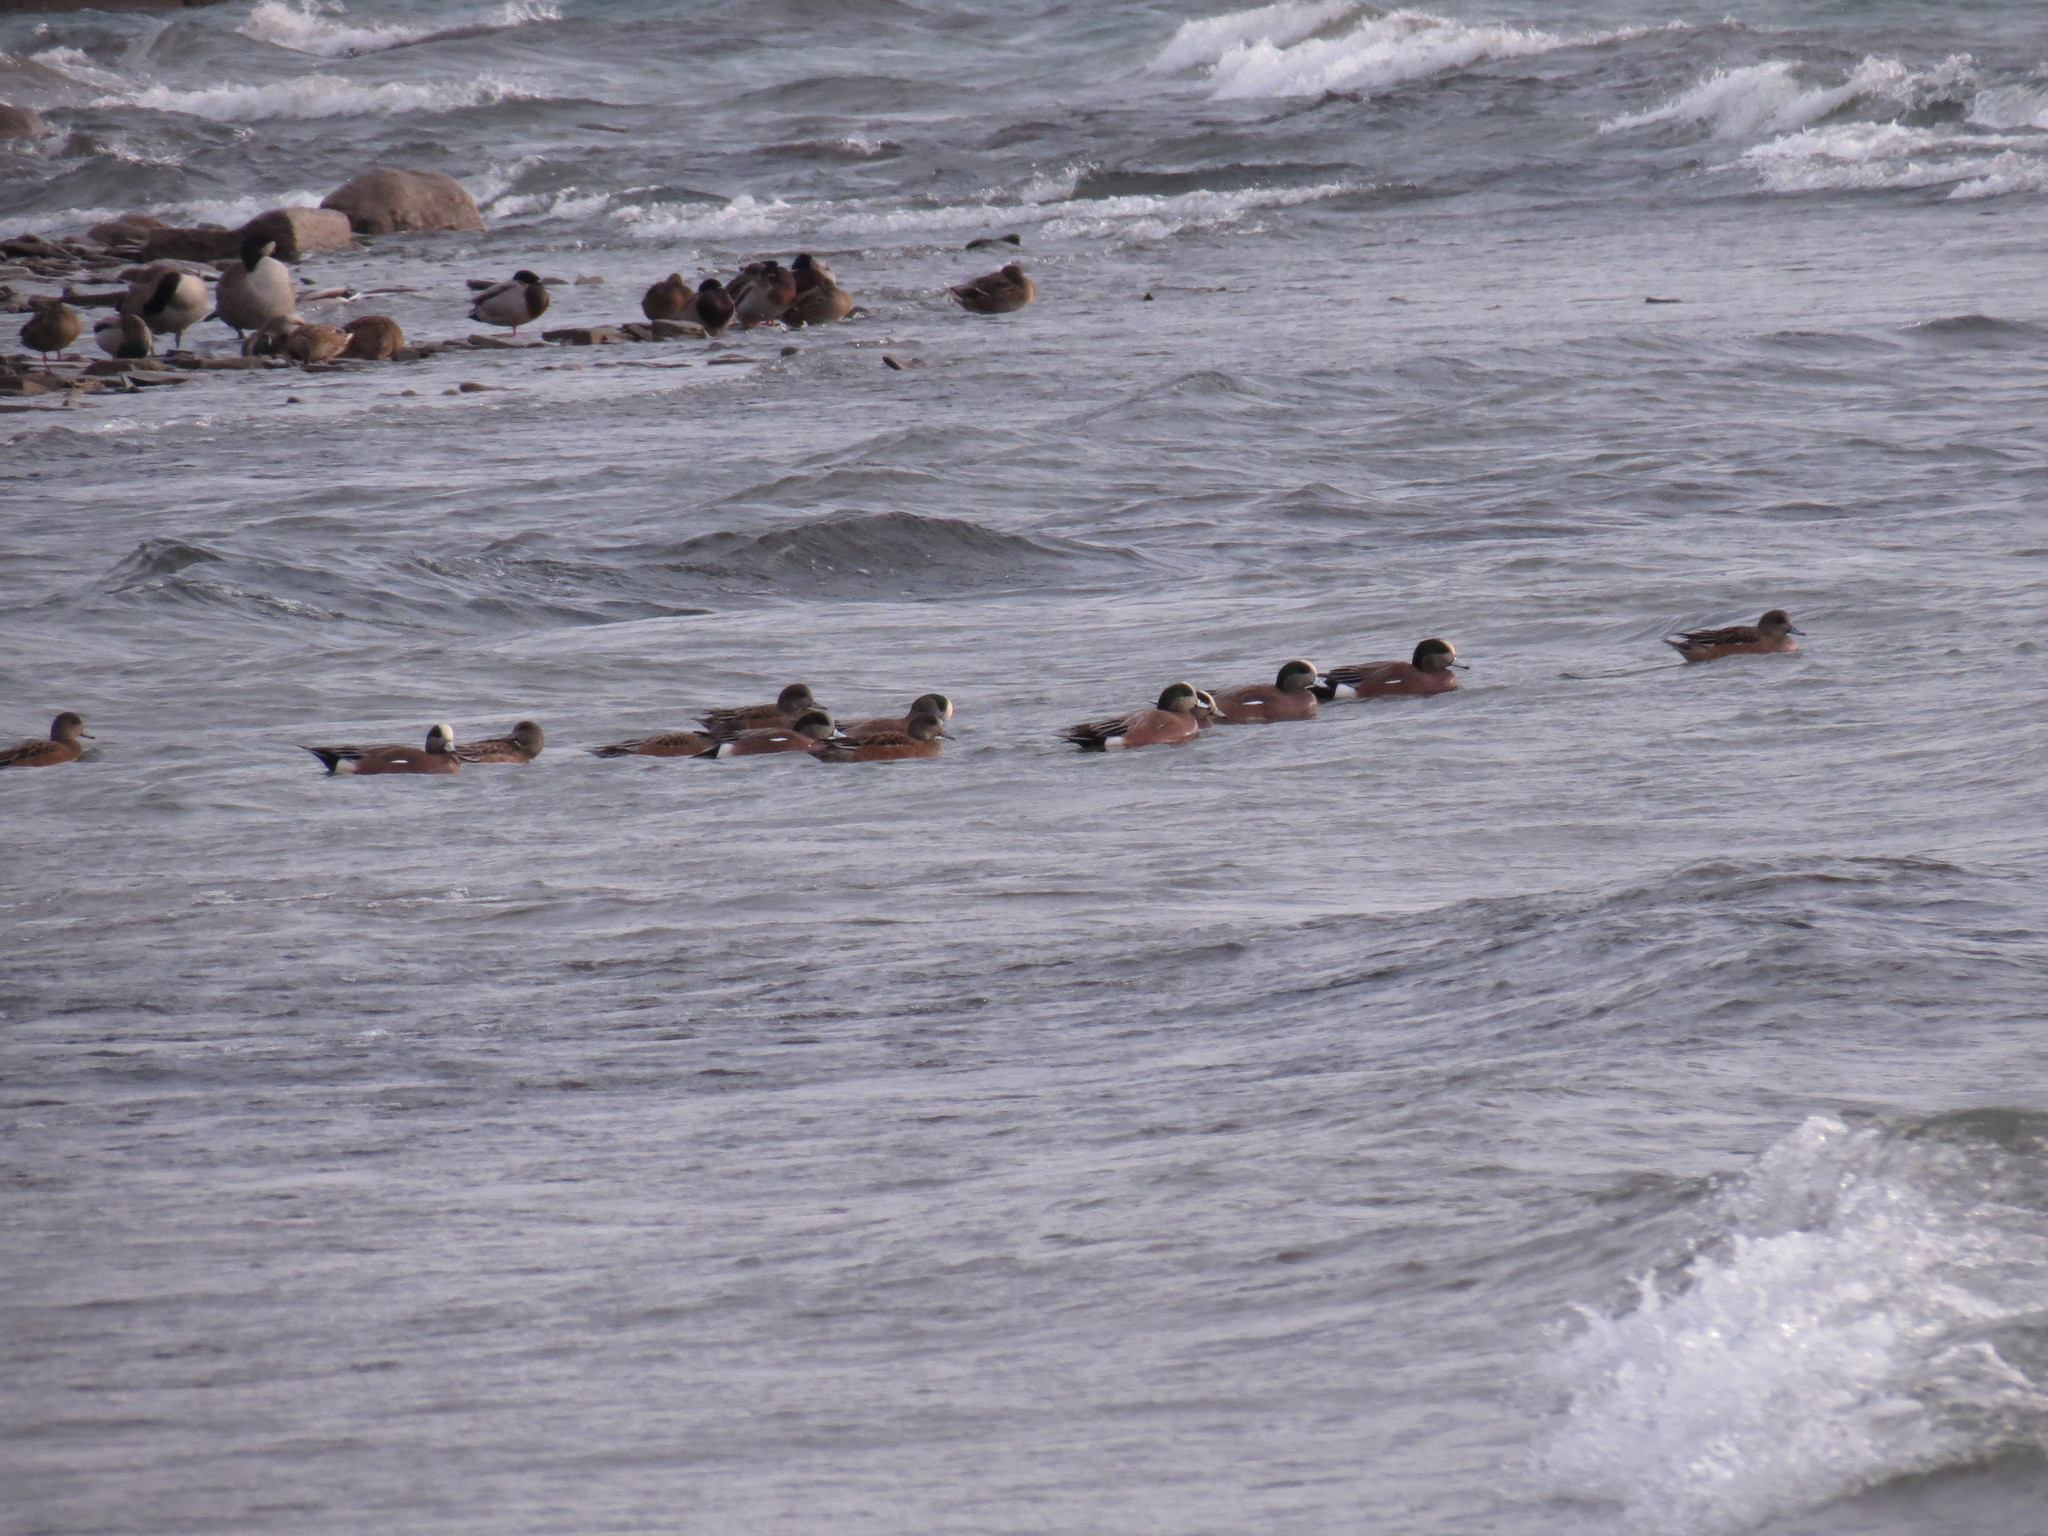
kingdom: Animalia
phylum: Chordata
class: Aves
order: Anseriformes
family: Anatidae
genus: Mareca
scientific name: Mareca americana
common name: American wigeon
